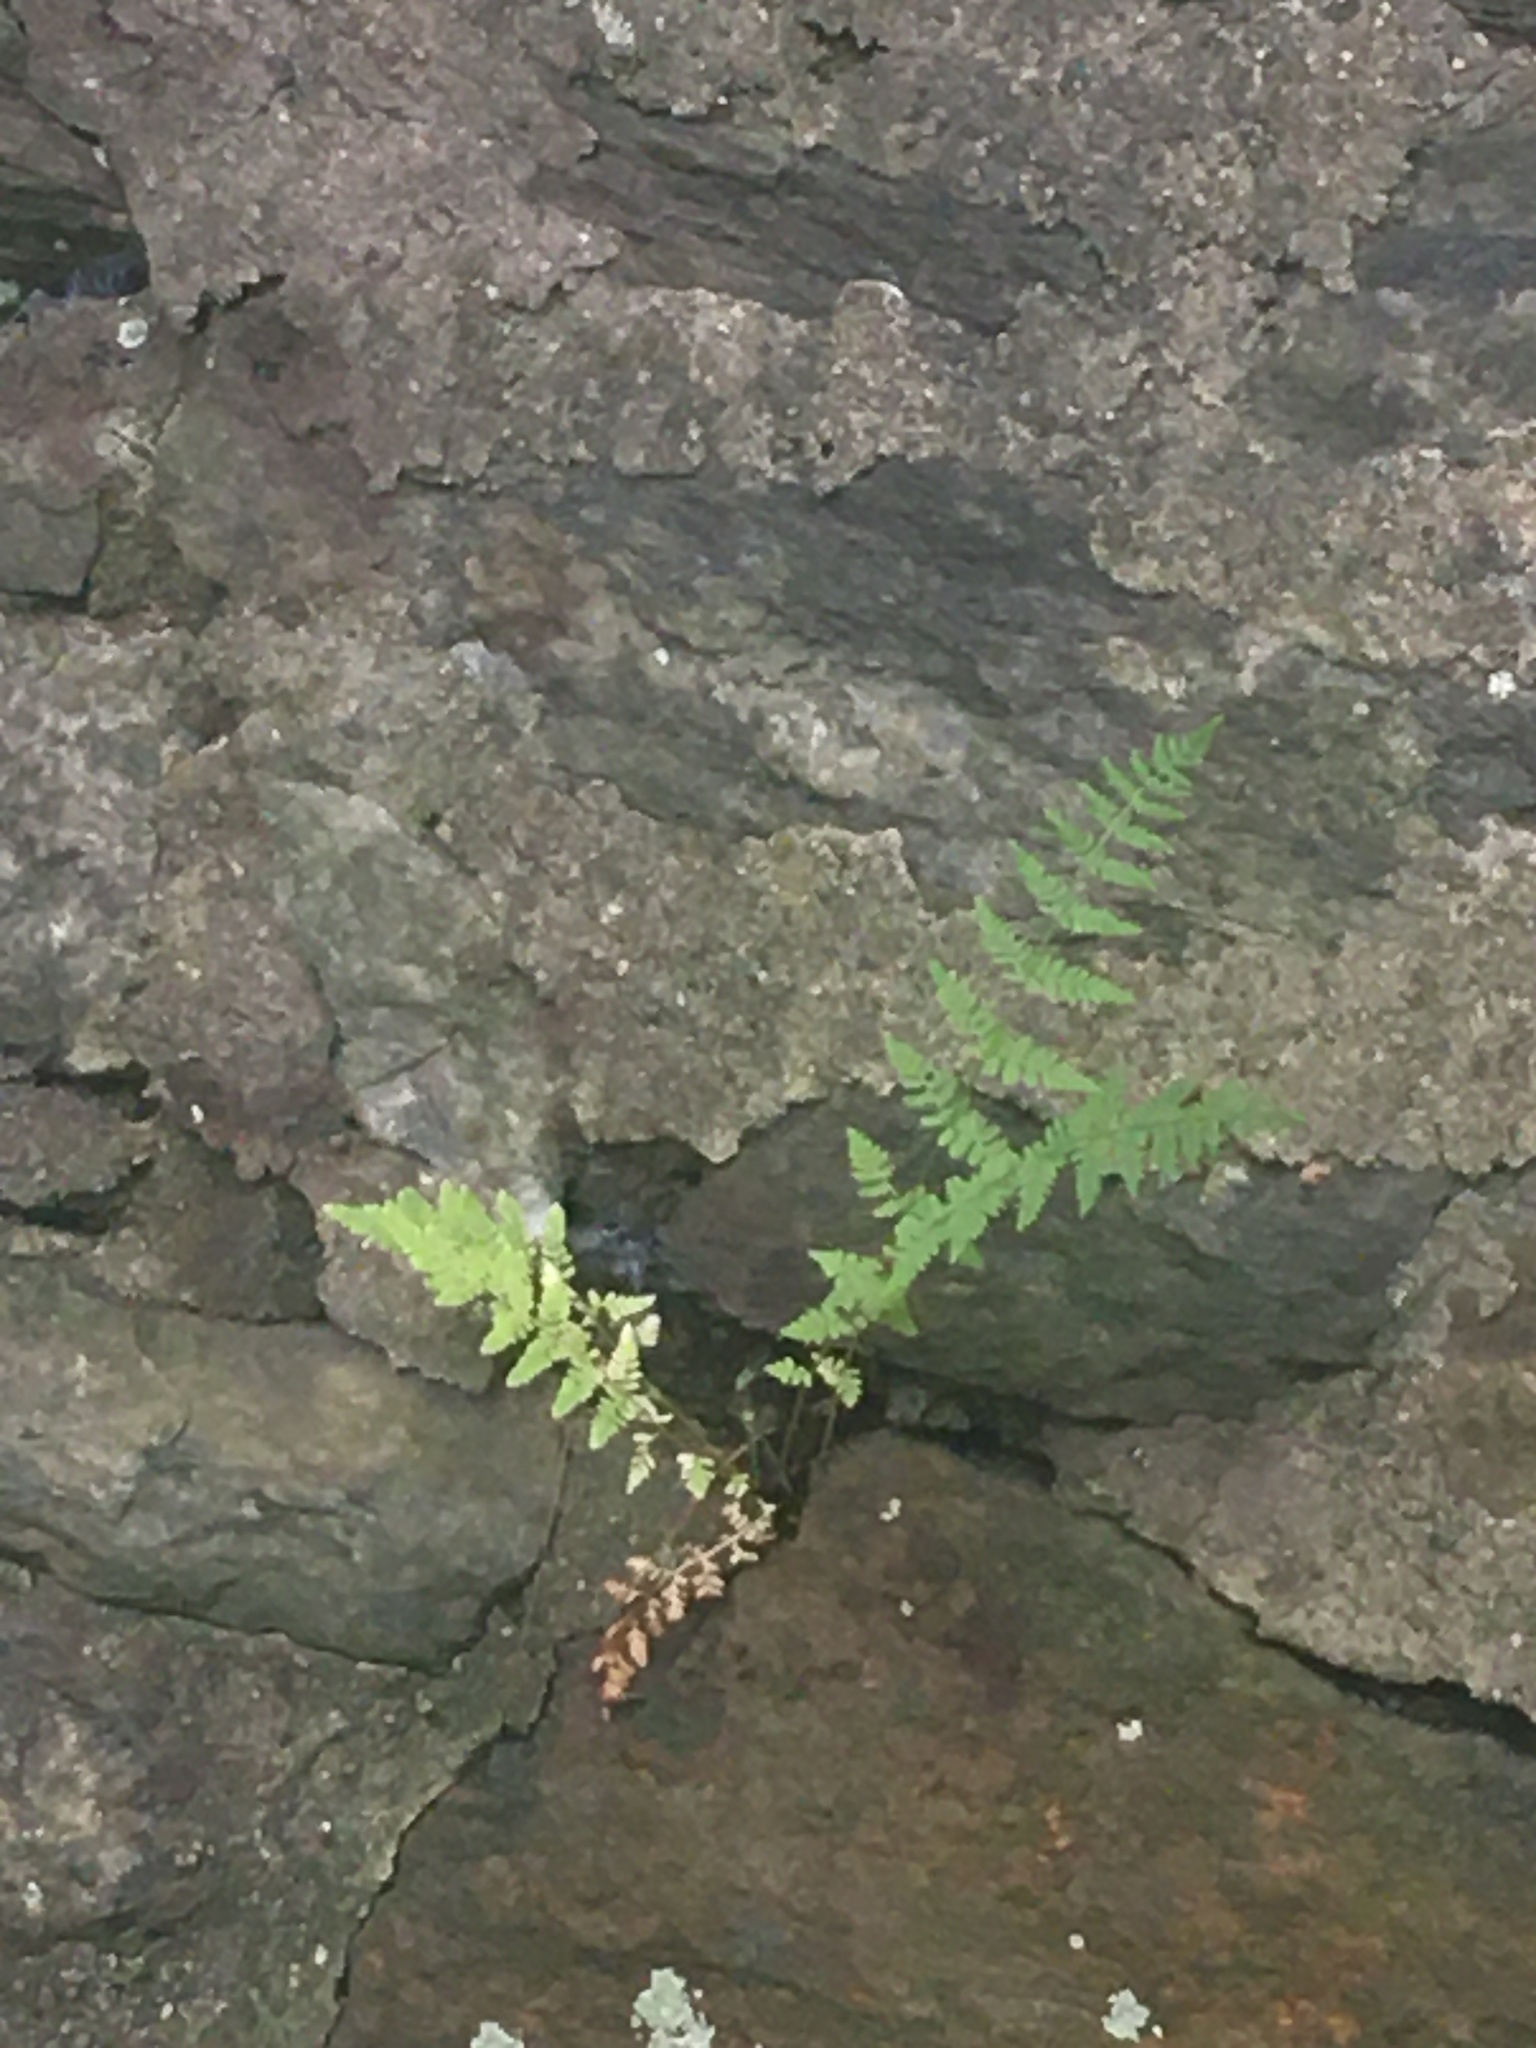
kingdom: Plantae
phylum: Tracheophyta
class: Polypodiopsida
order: Polypodiales
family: Woodsiaceae
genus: Physematium
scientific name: Physematium obtusum
